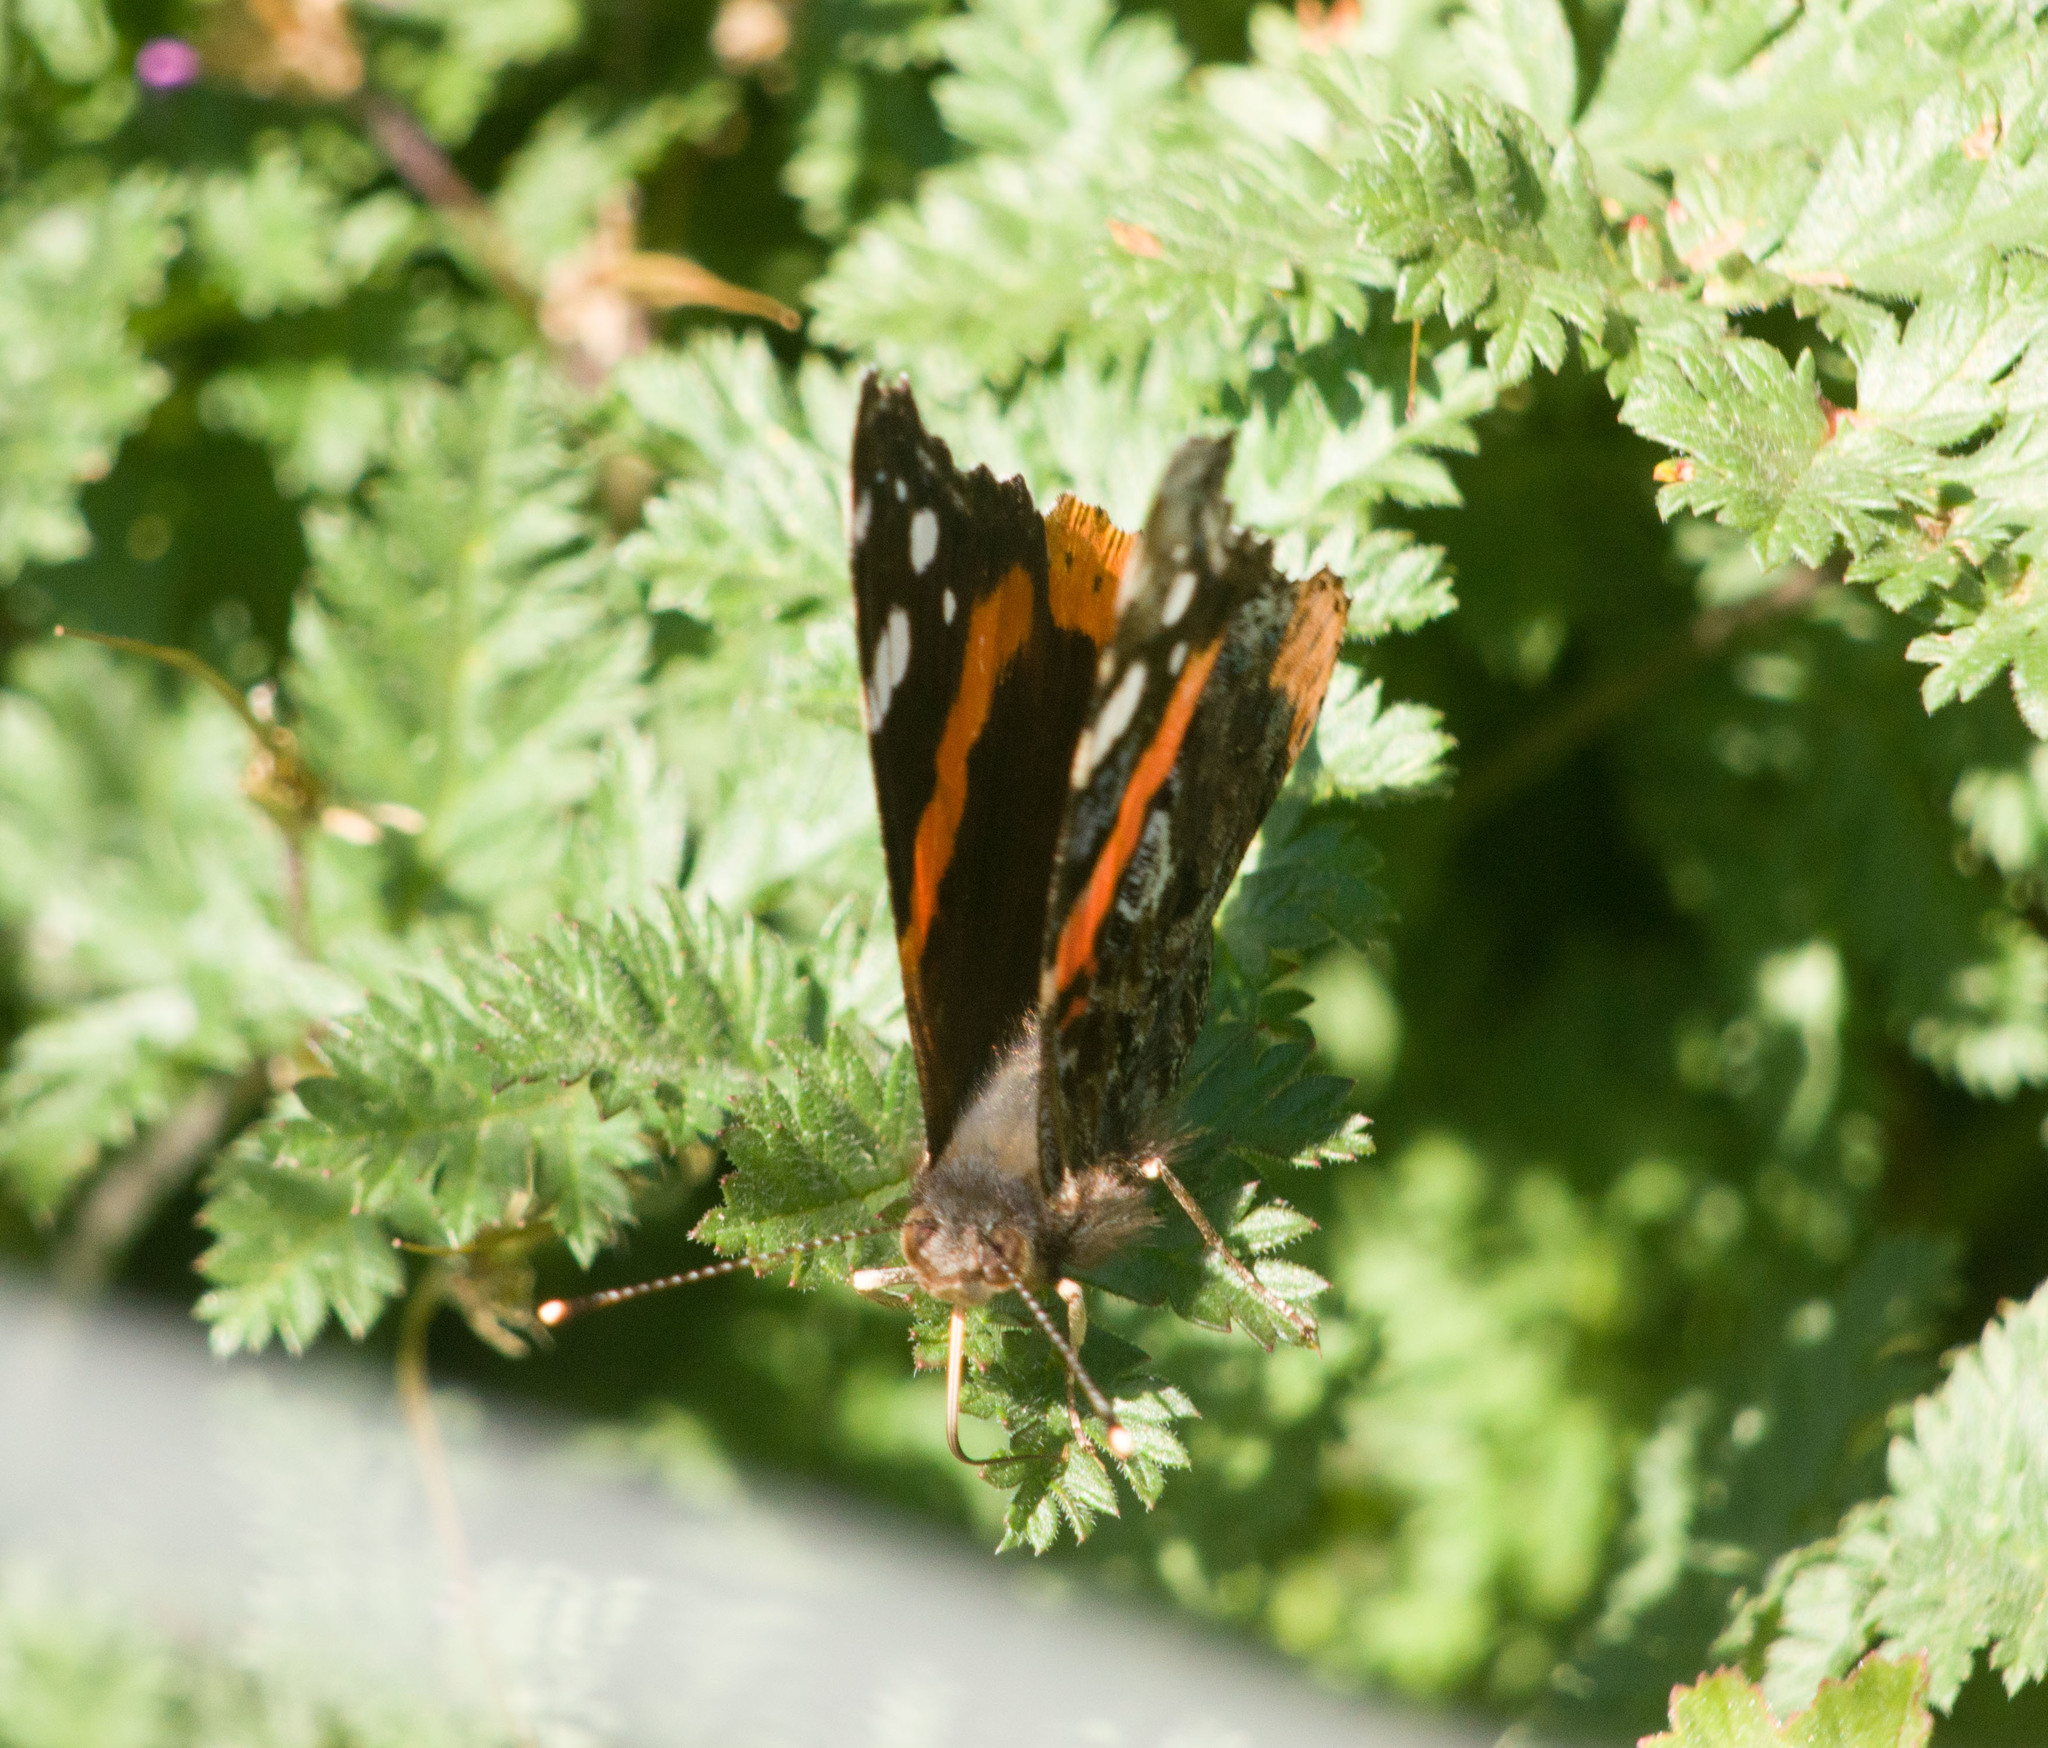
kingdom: Animalia
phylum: Arthropoda
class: Insecta
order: Lepidoptera
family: Nymphalidae
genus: Vanessa
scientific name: Vanessa atalanta
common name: Red admiral
